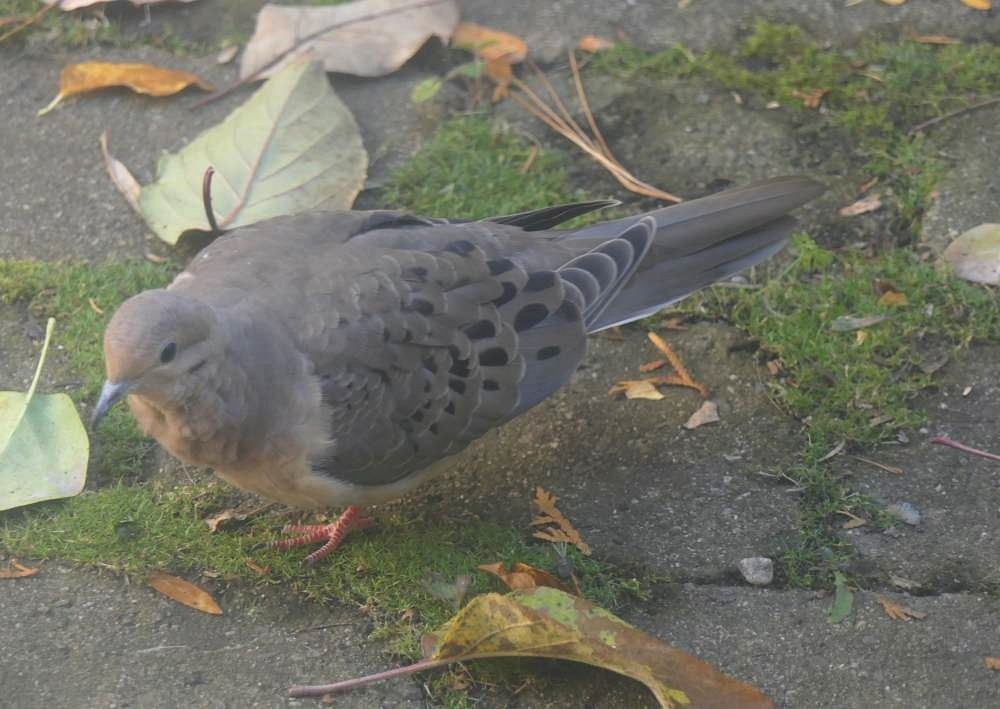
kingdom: Animalia
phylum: Chordata
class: Aves
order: Columbiformes
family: Columbidae
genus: Zenaida
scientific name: Zenaida macroura
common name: Mourning dove
